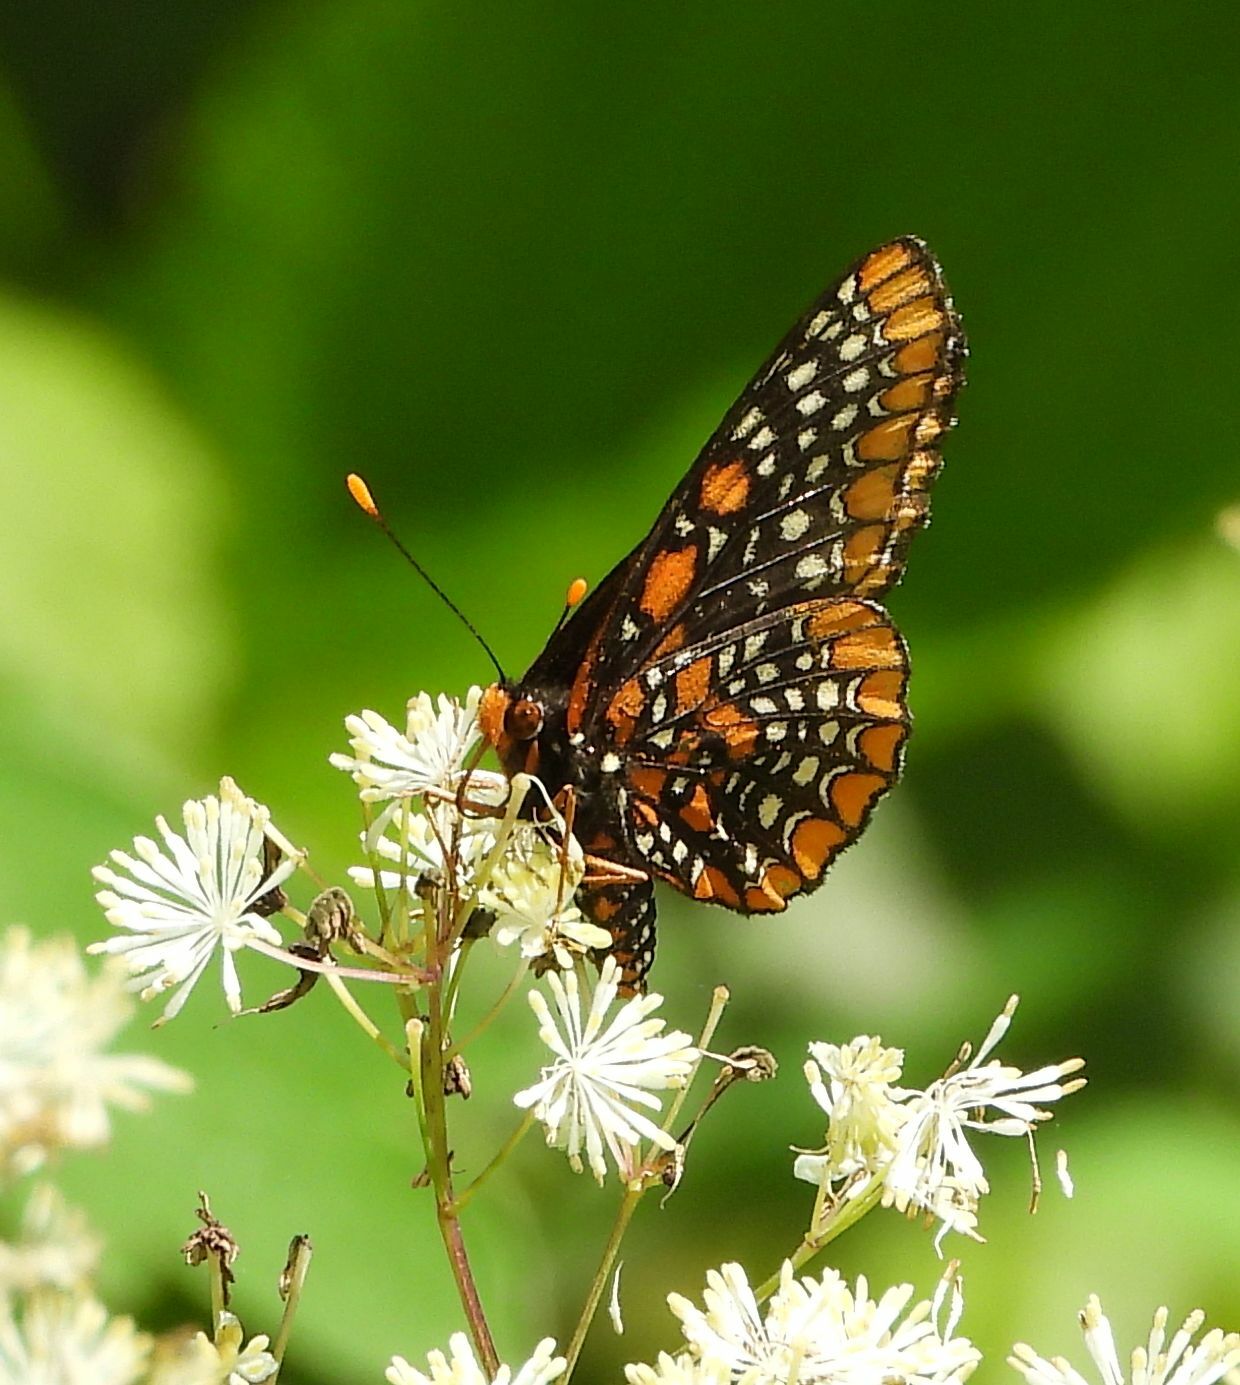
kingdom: Animalia
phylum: Arthropoda
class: Insecta
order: Lepidoptera
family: Nymphalidae
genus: Euphydryas
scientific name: Euphydryas phaeton
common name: Baltimore checkerspot
